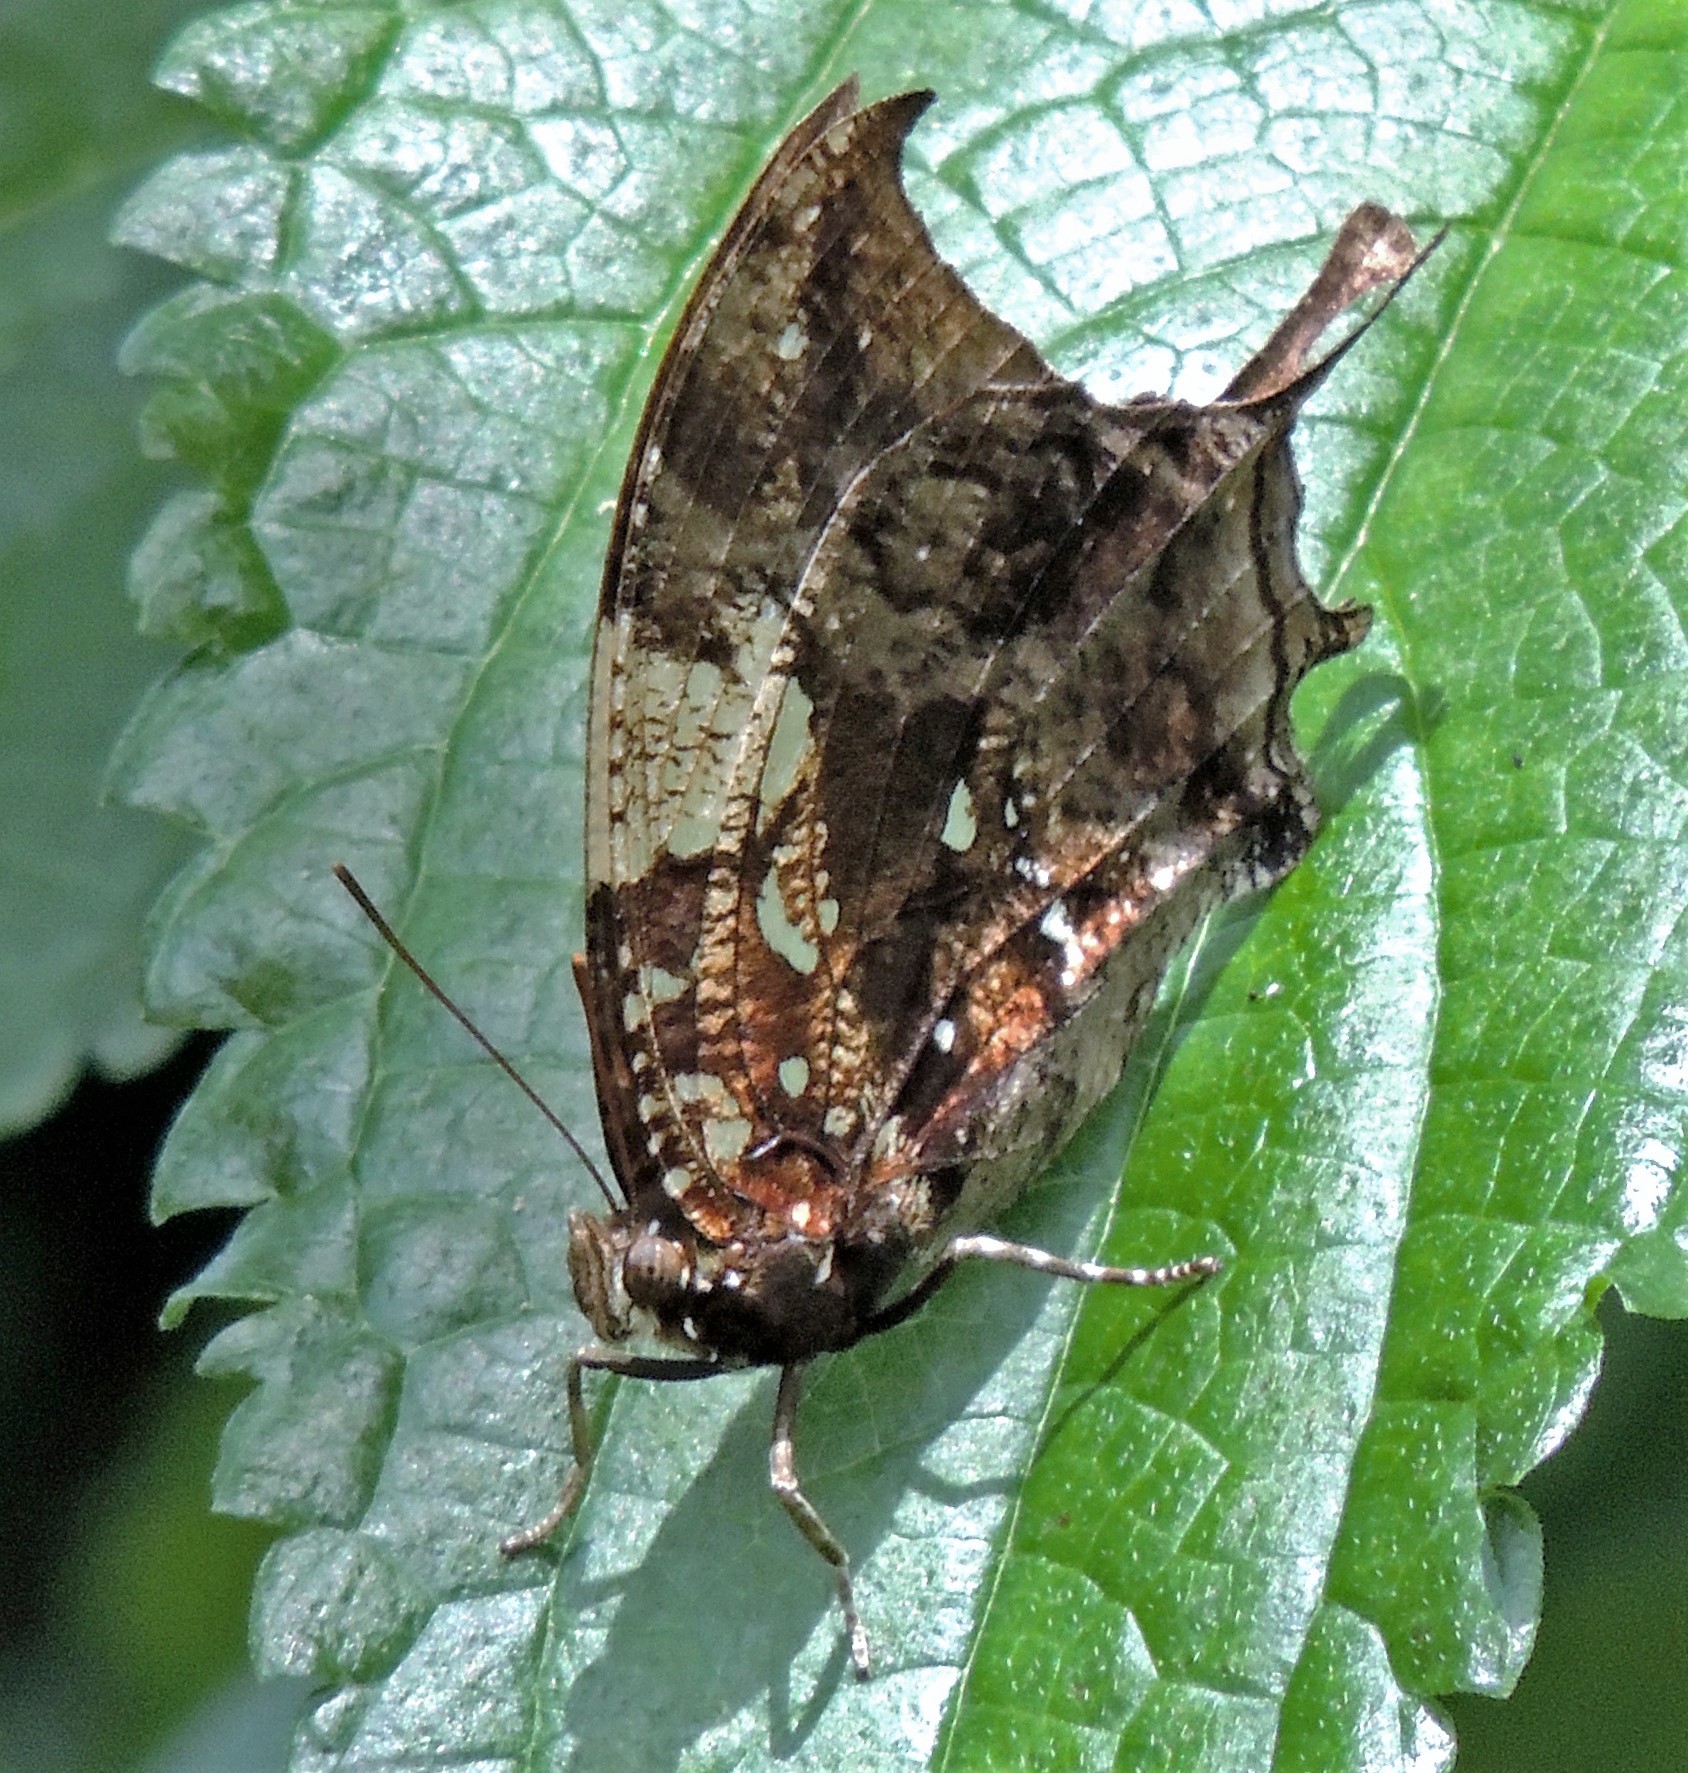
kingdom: Animalia
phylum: Arthropoda
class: Insecta
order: Lepidoptera
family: Nymphalidae
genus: Hypna
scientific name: Hypna clytemnestra
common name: Silver-studded leafwing
